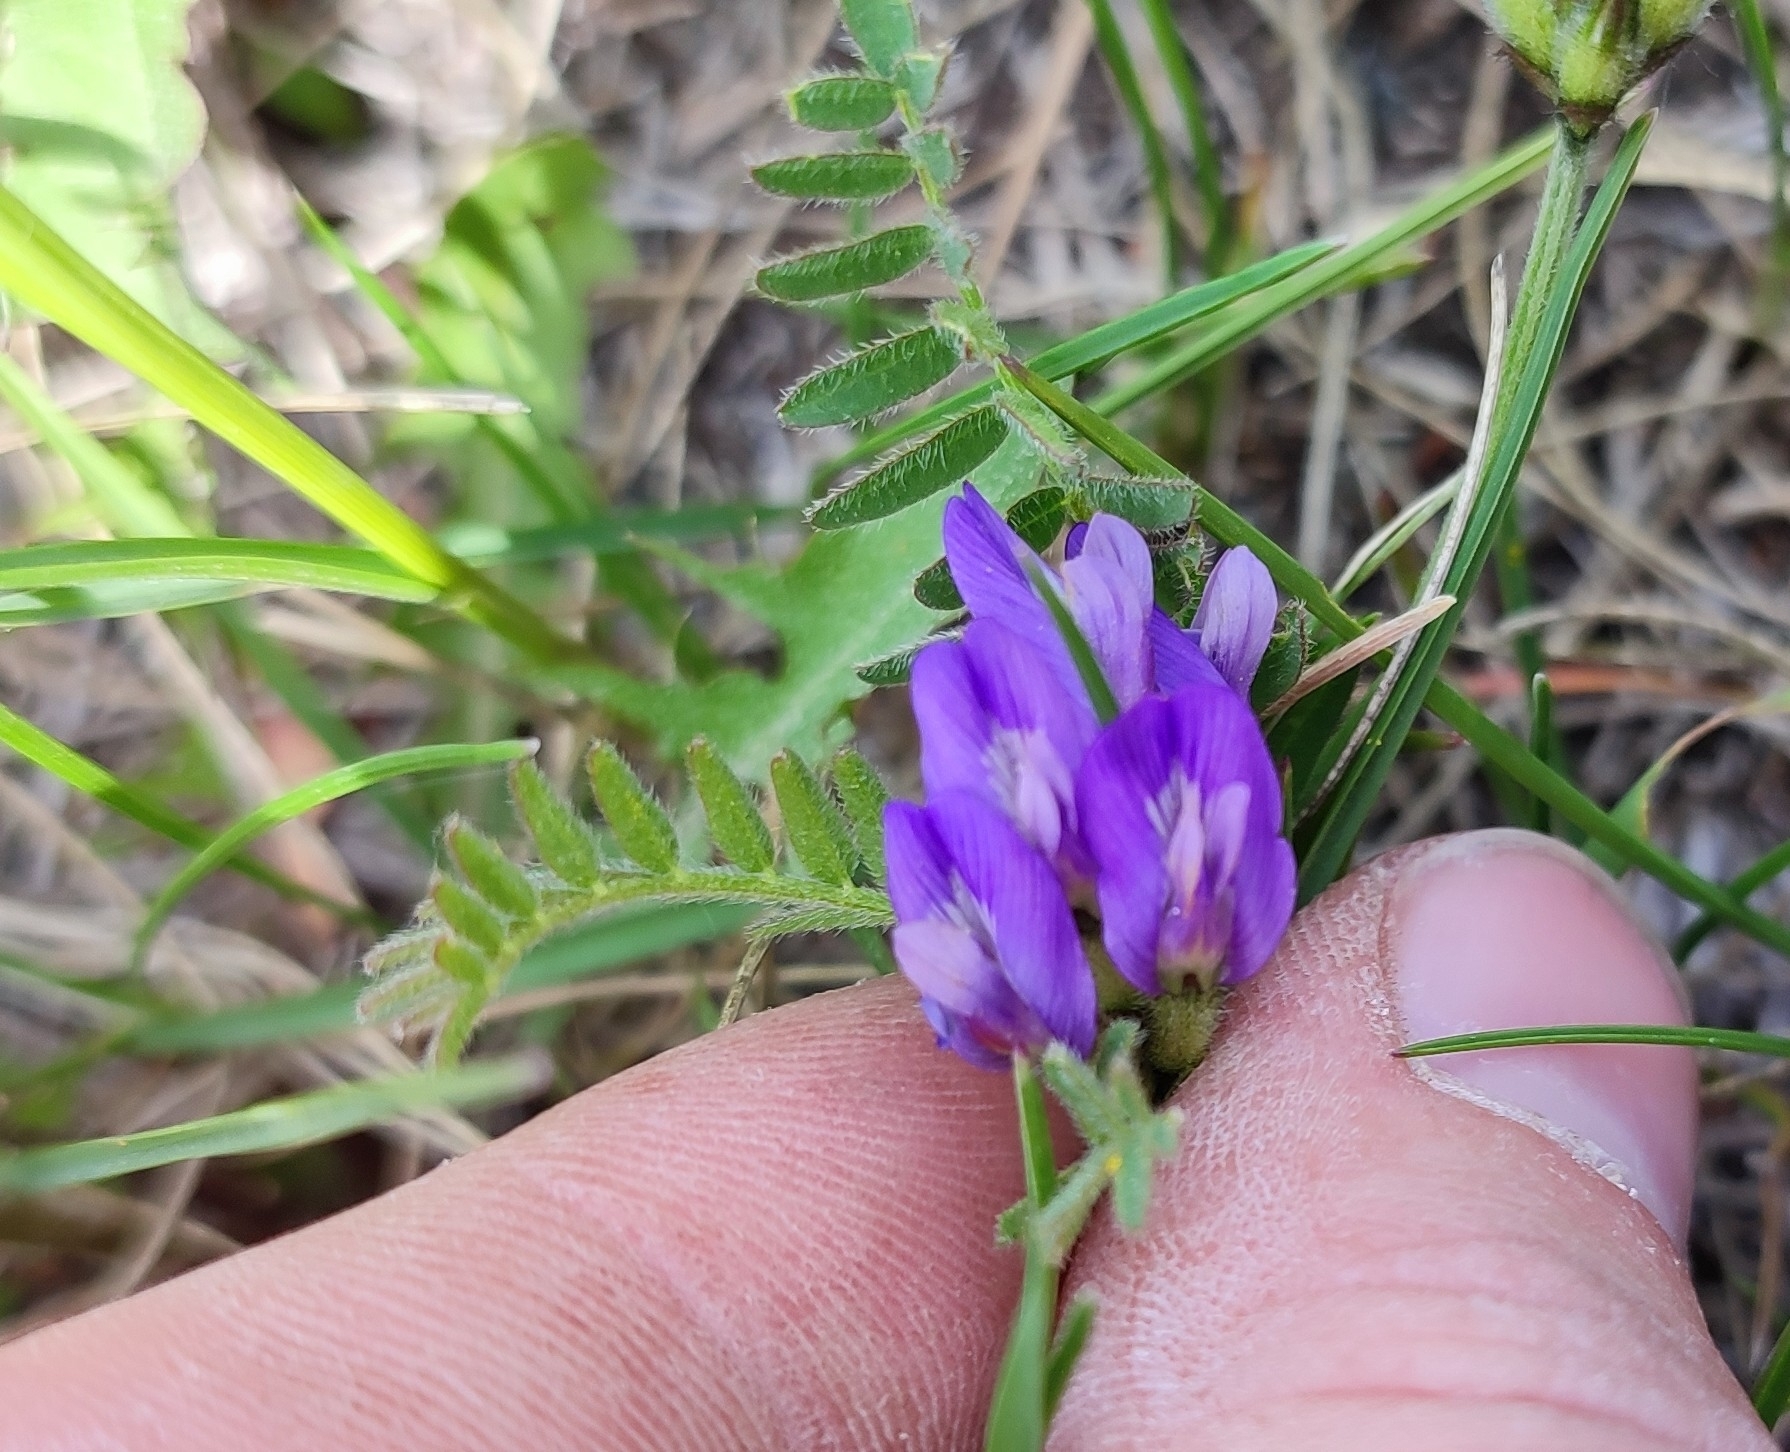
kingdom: Plantae
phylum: Tracheophyta
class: Magnoliopsida
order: Fabales
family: Fabaceae
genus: Astragalus
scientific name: Astragalus danicus
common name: Purple milk-vetch
